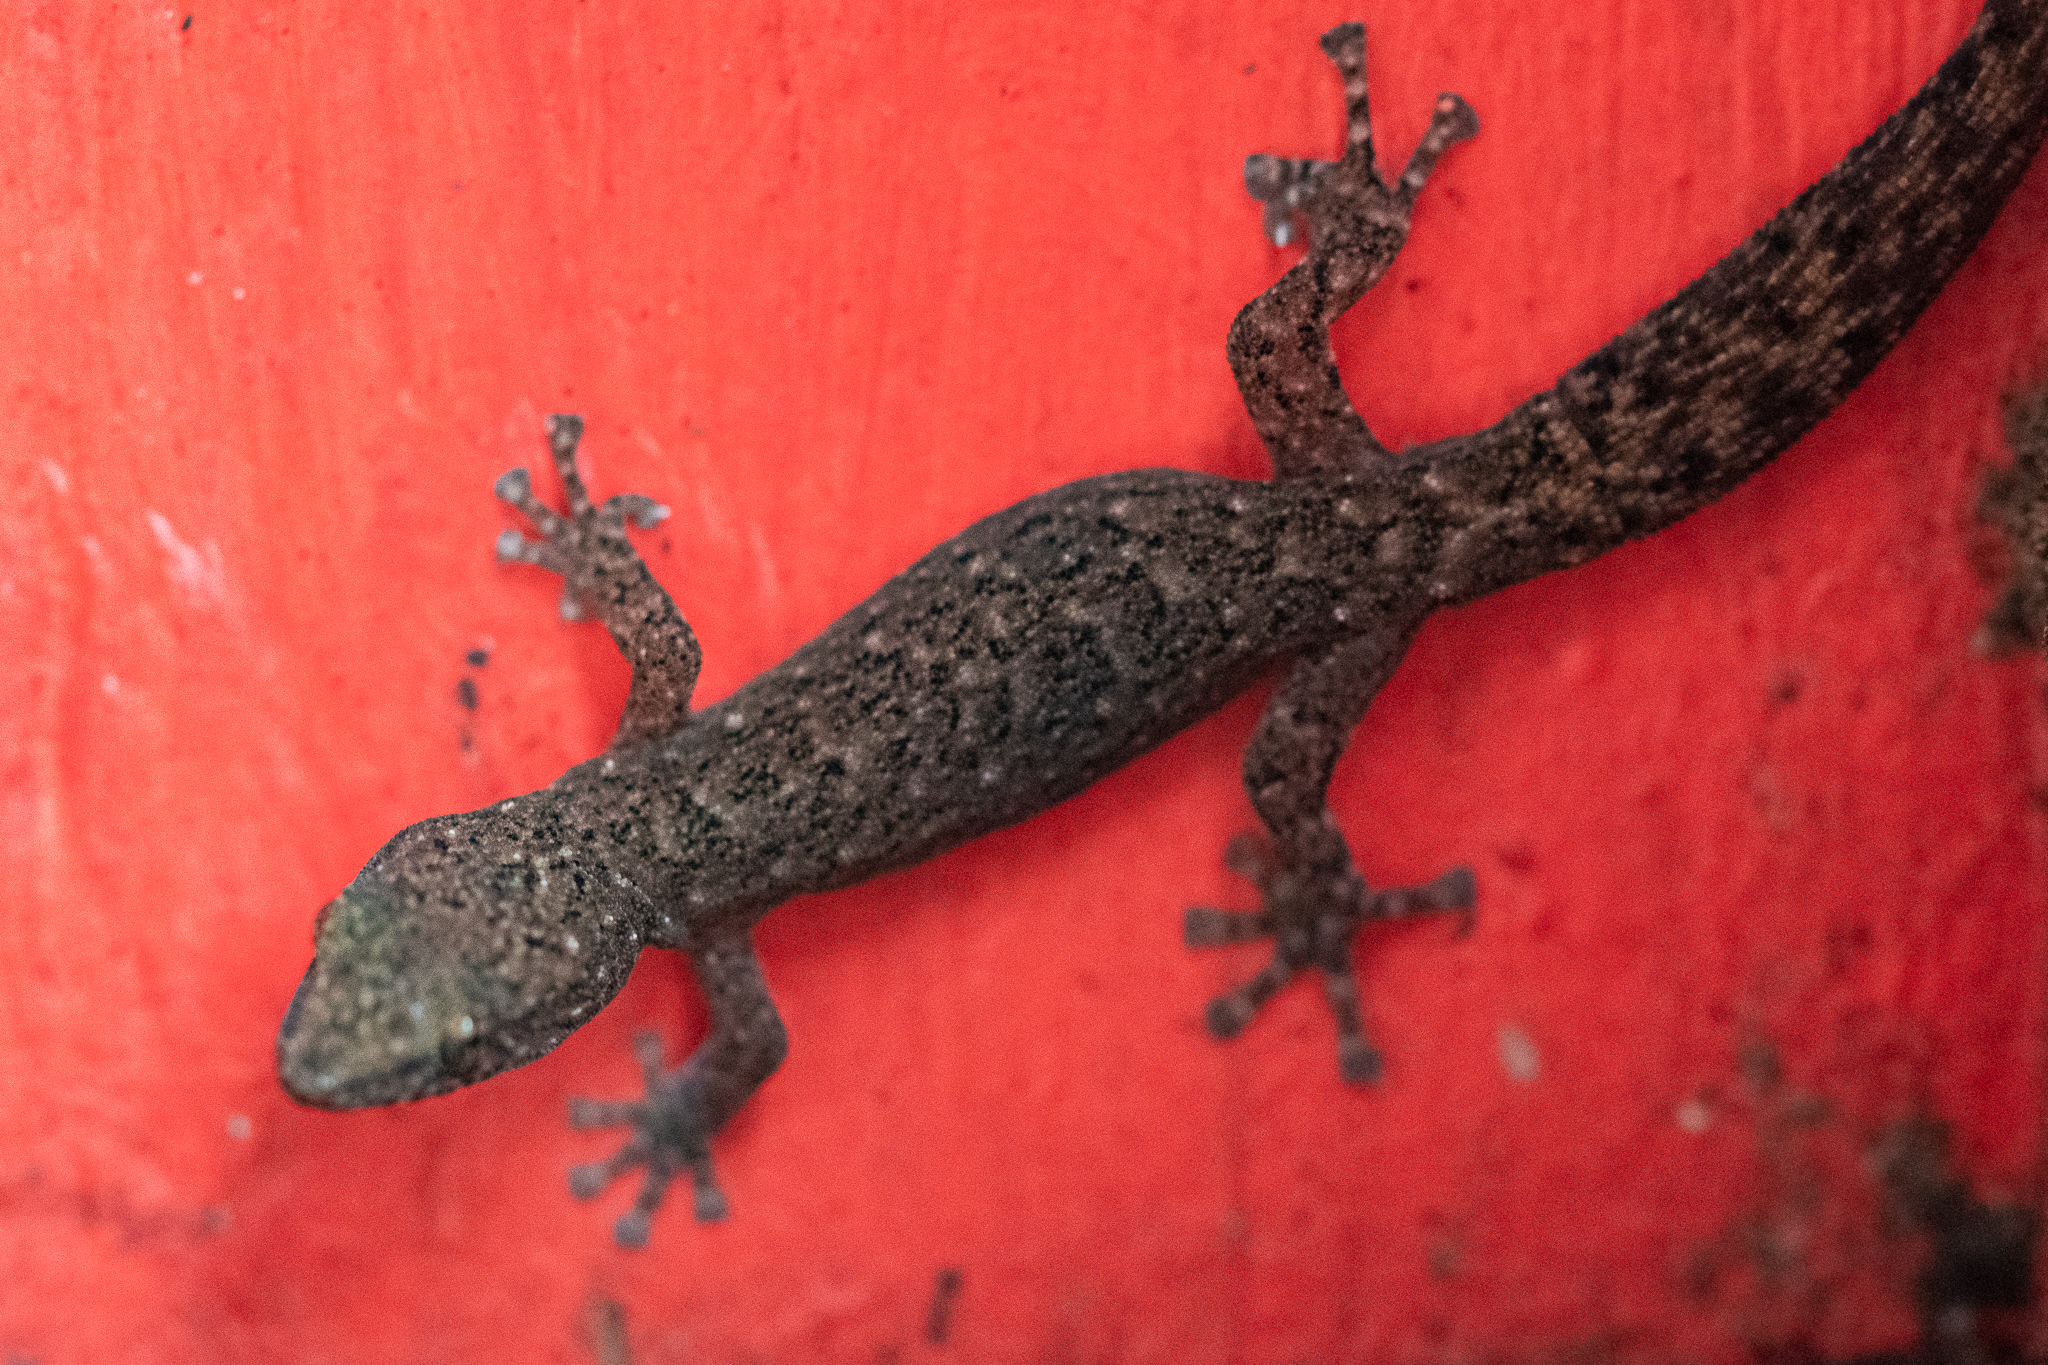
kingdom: Animalia
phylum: Chordata
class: Squamata
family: Gekkonidae
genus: Afrogecko
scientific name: Afrogecko porphyreus
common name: Marbled leaf-toed gecko
